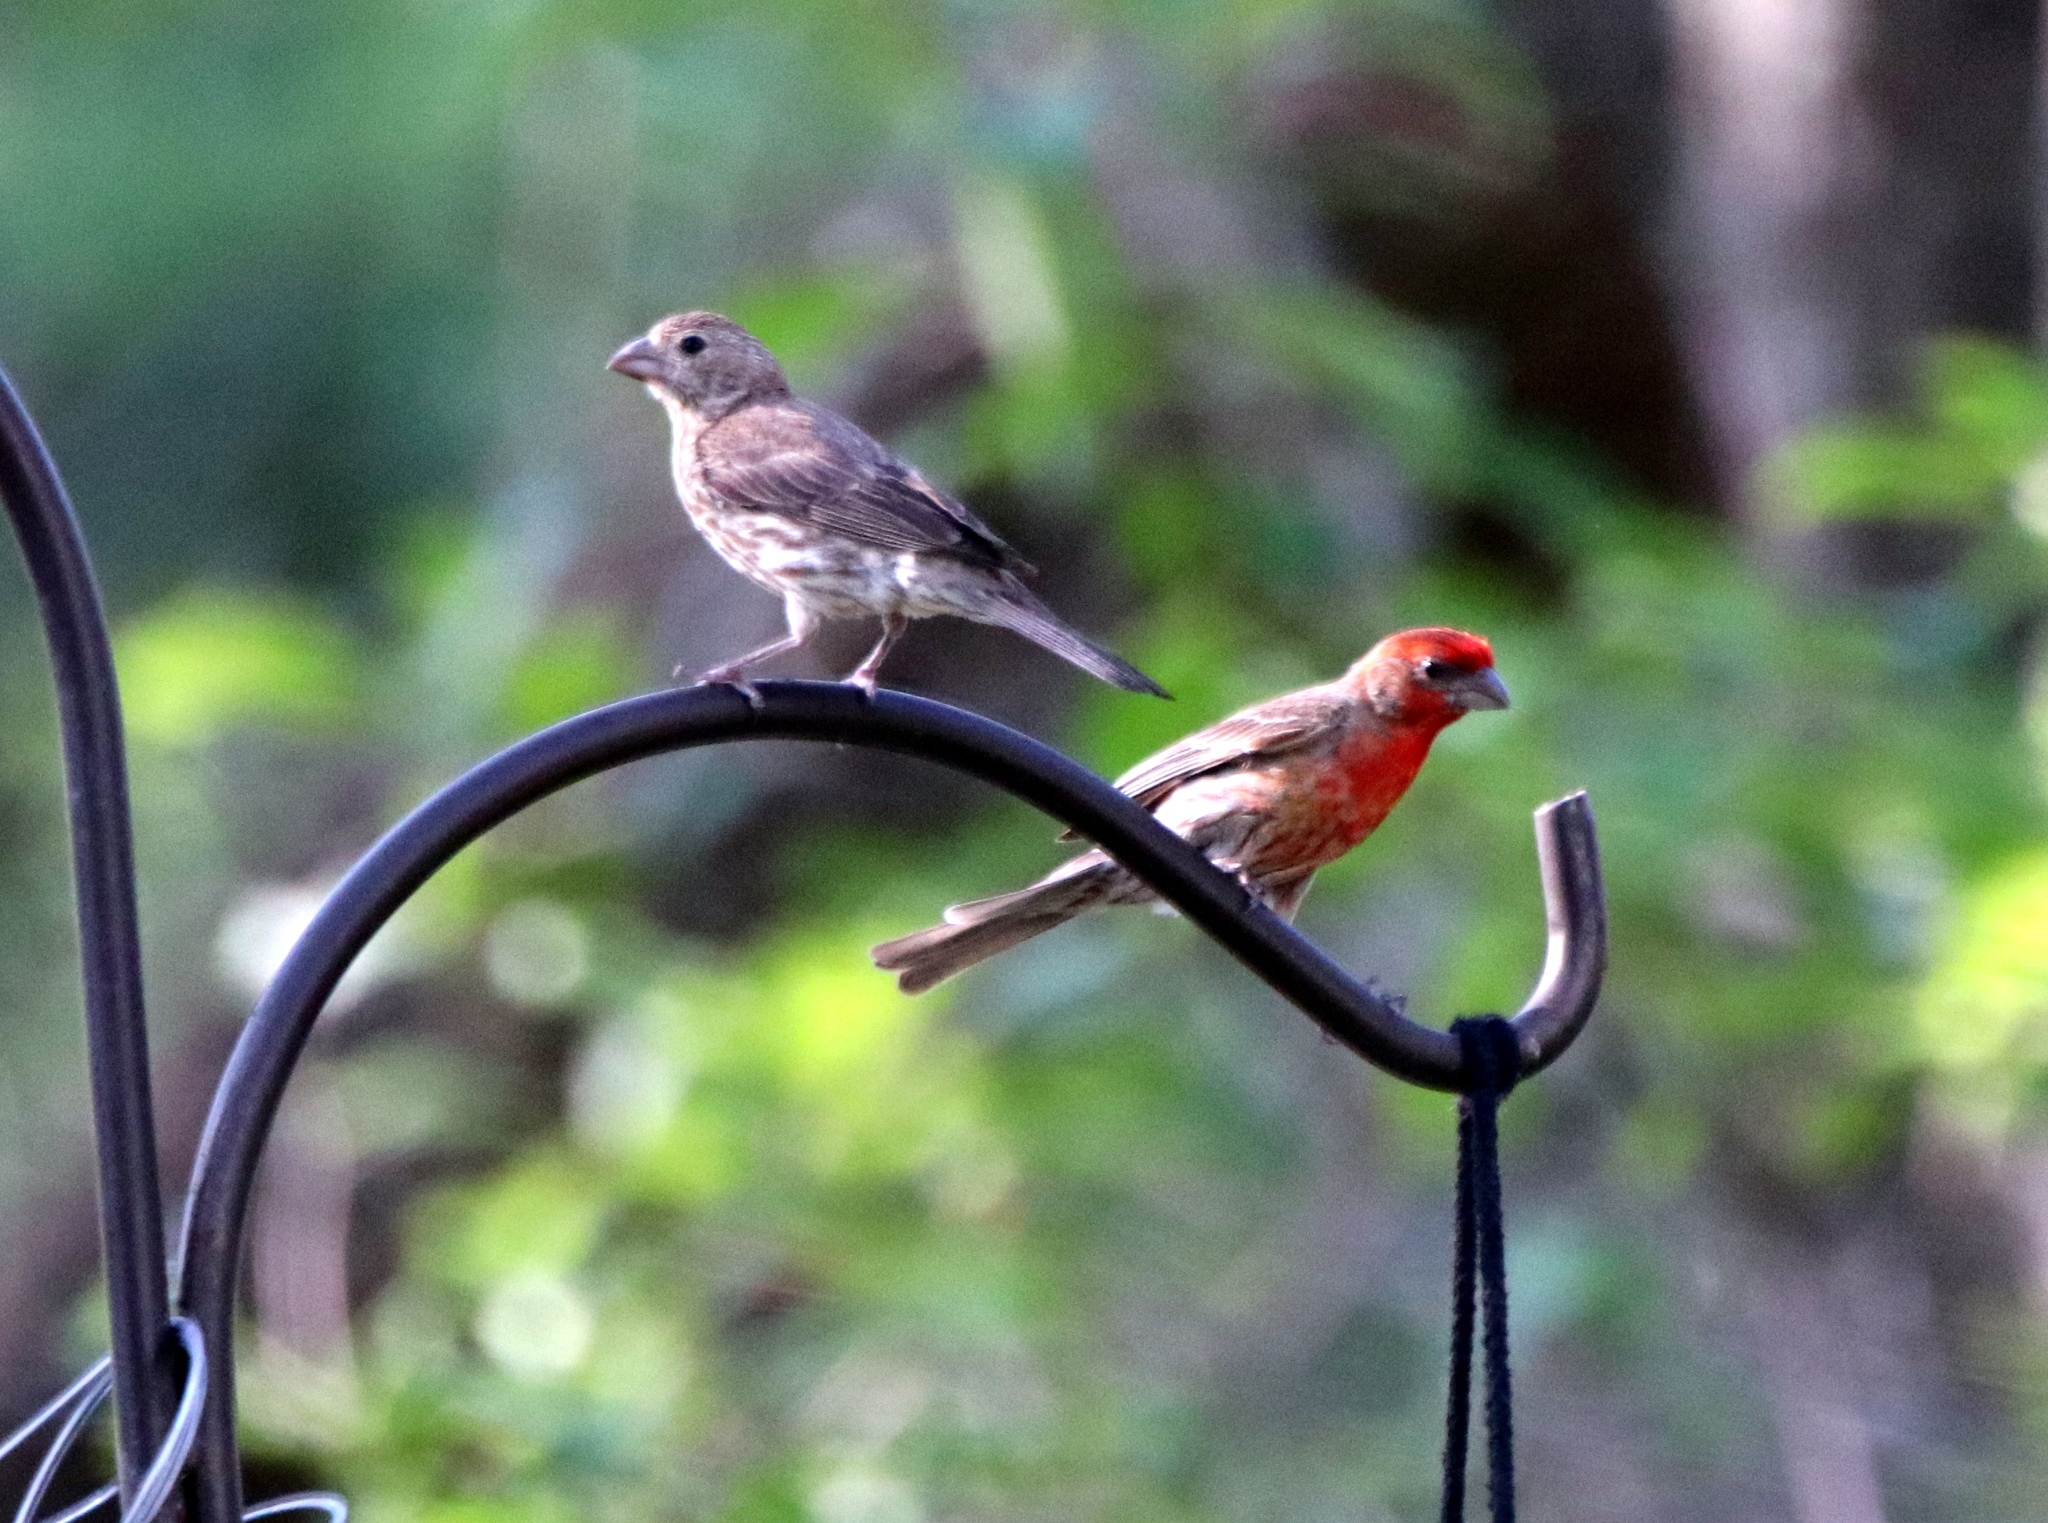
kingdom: Animalia
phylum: Chordata
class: Aves
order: Passeriformes
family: Fringillidae
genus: Haemorhous
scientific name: Haemorhous mexicanus
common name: House finch
